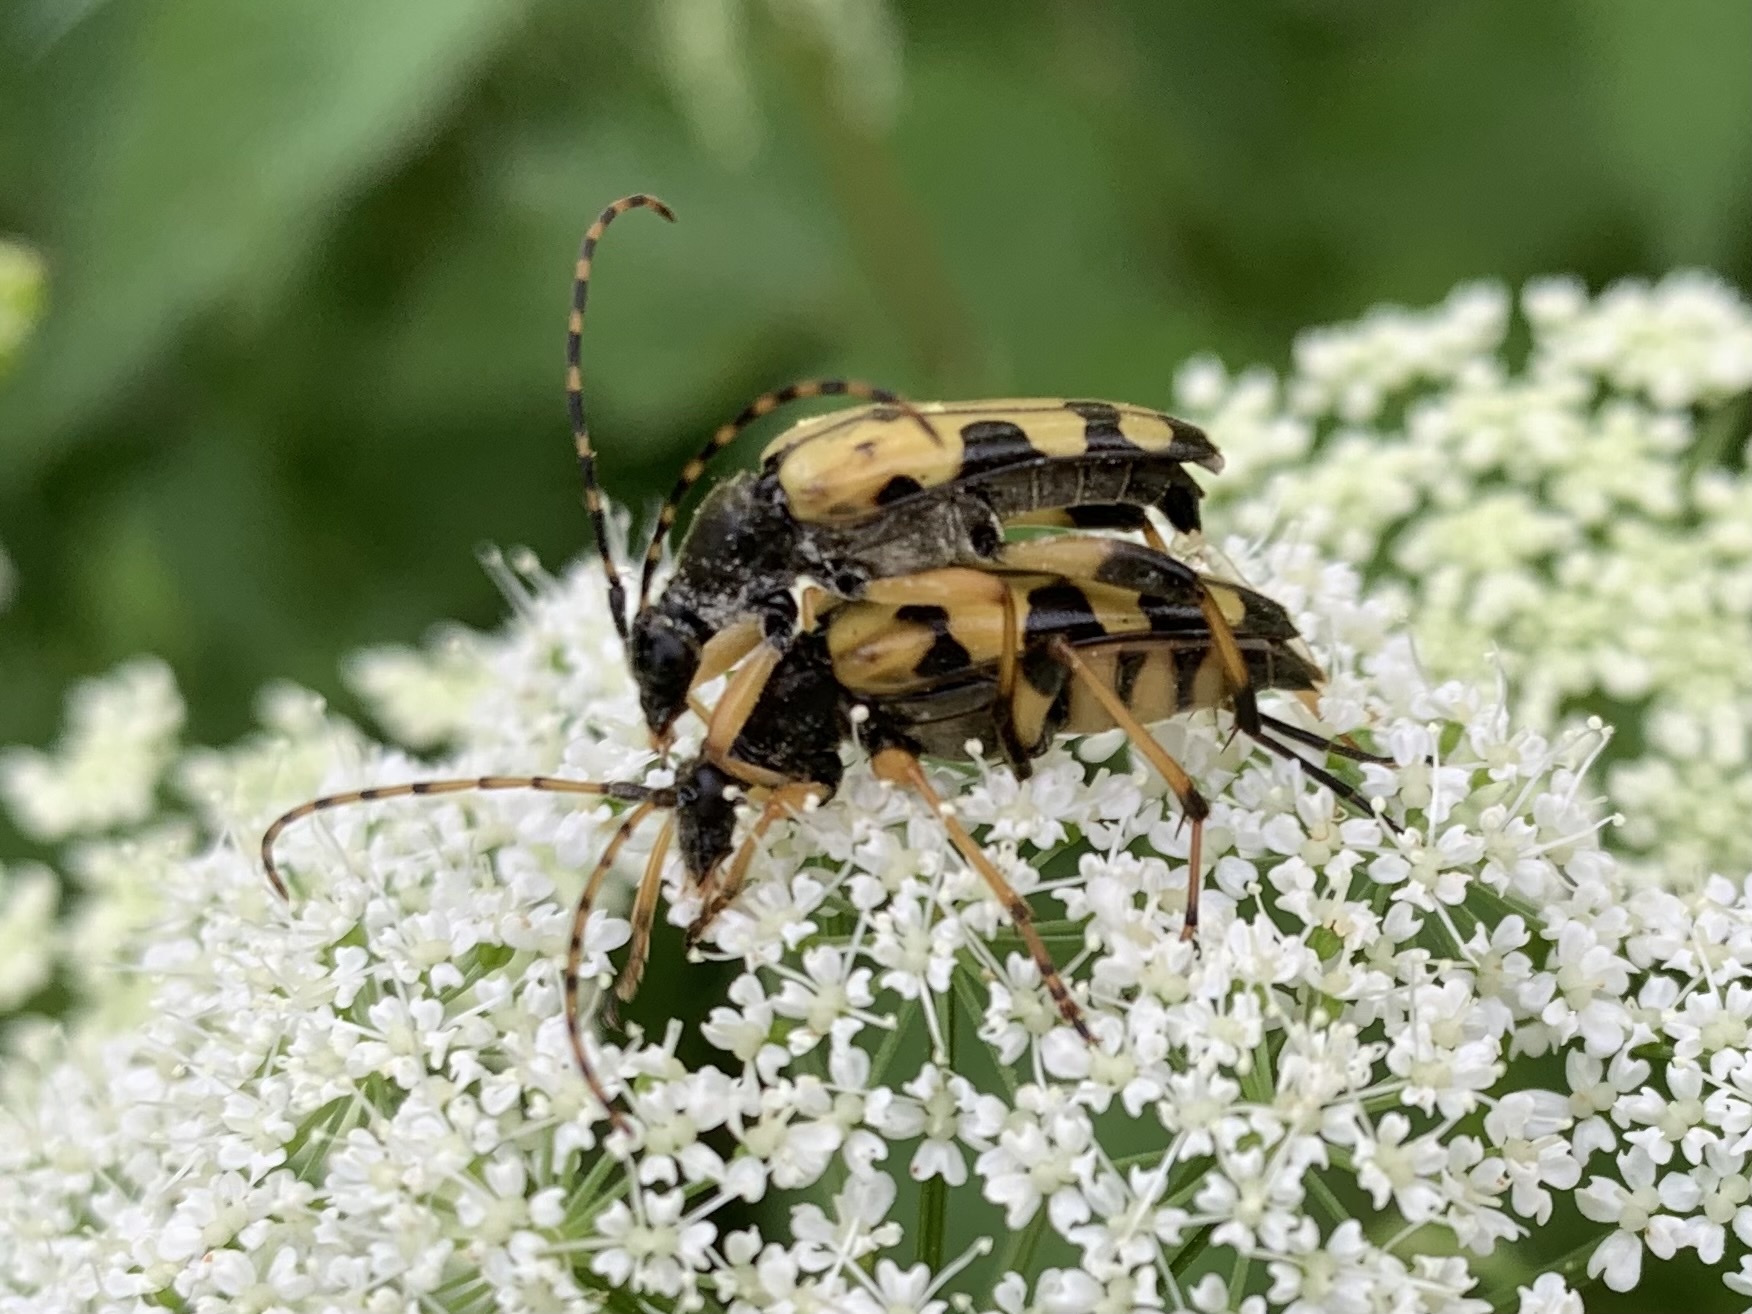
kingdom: Animalia
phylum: Arthropoda
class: Insecta
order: Coleoptera
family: Cerambycidae
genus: Rutpela
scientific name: Rutpela maculata
